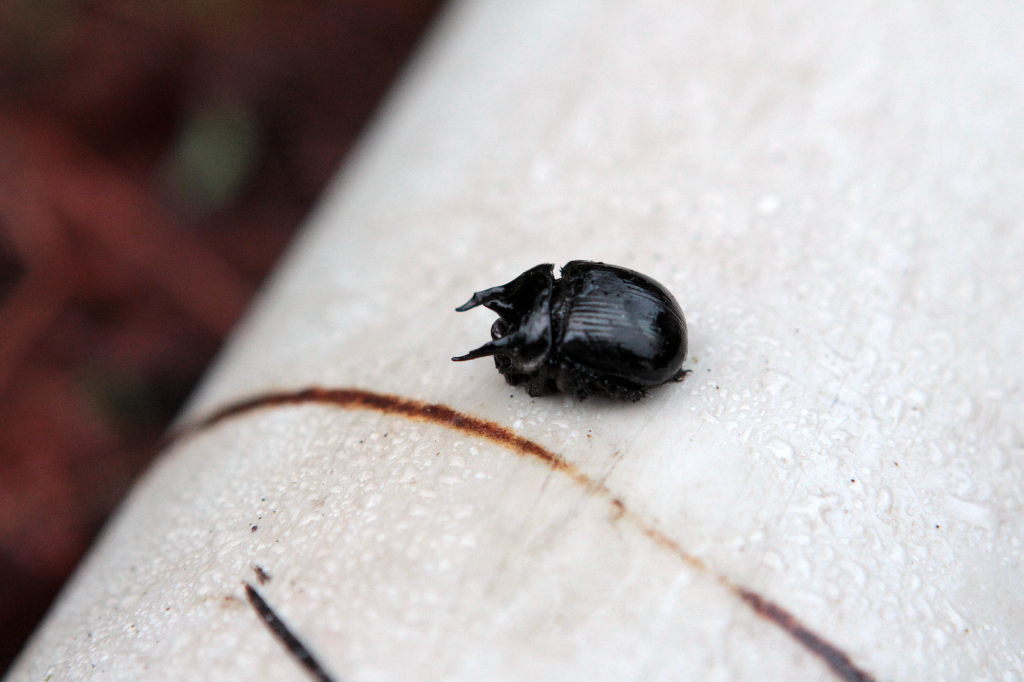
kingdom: Animalia
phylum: Arthropoda
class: Insecta
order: Coleoptera
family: Geotrupidae
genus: Typhaeus
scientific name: Typhaeus typhoeus
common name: Minotaur beetle
